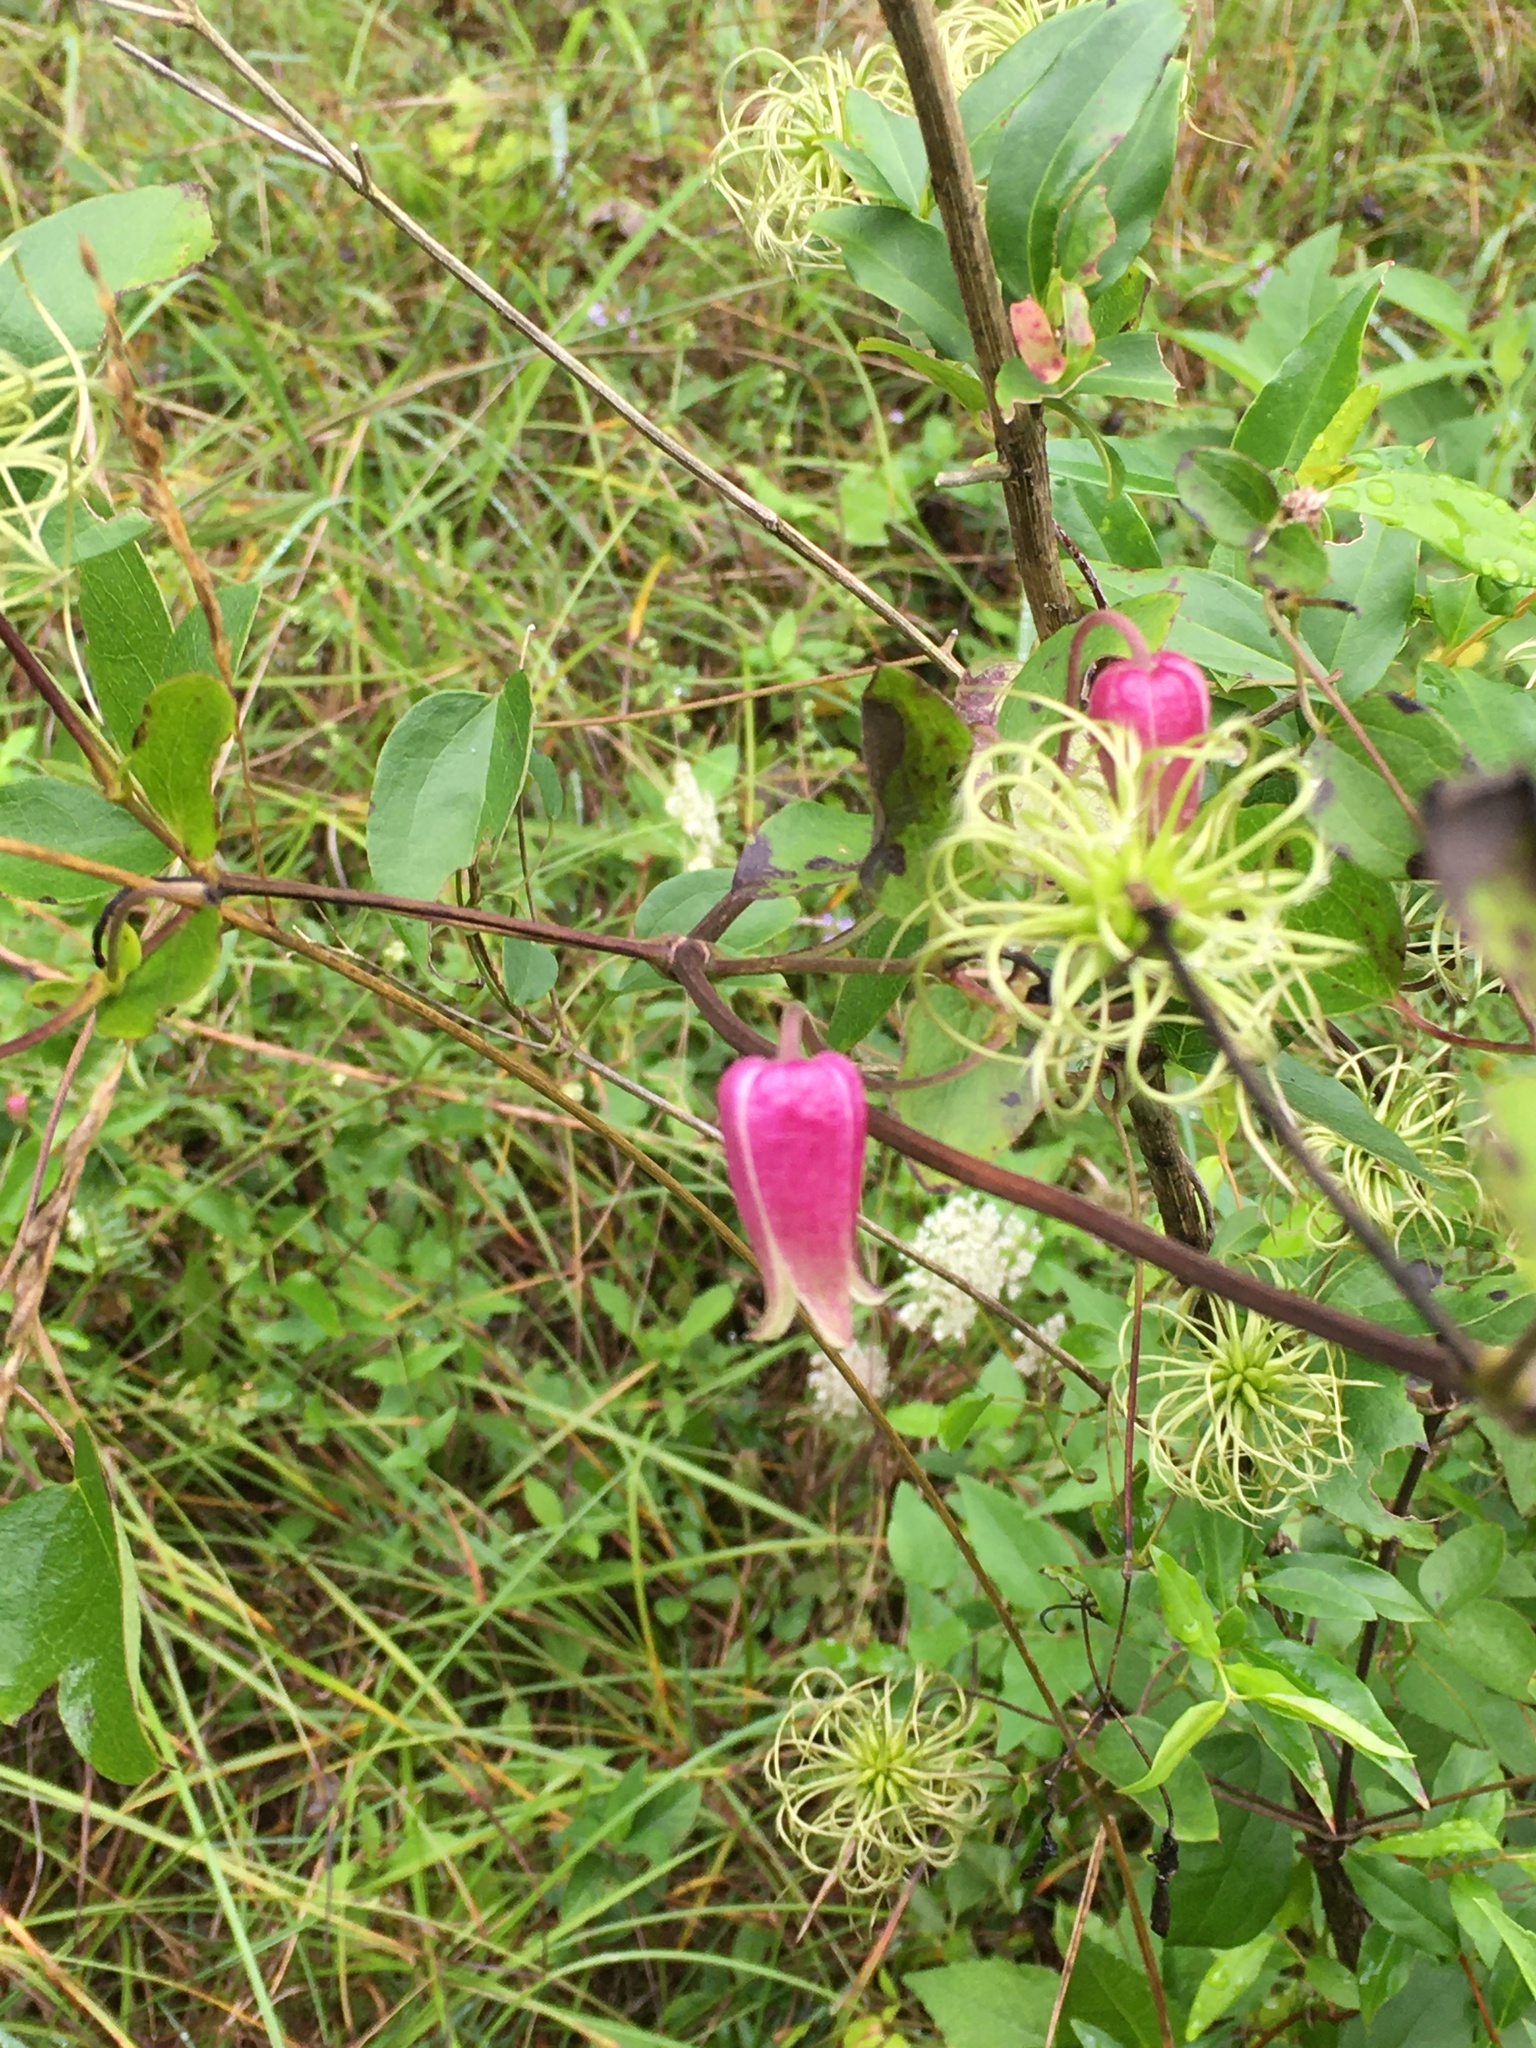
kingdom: Plantae
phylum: Tracheophyta
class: Magnoliopsida
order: Ranunculales
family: Ranunculaceae
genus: Clematis
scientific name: Clematis viorna
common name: Leather-flower
